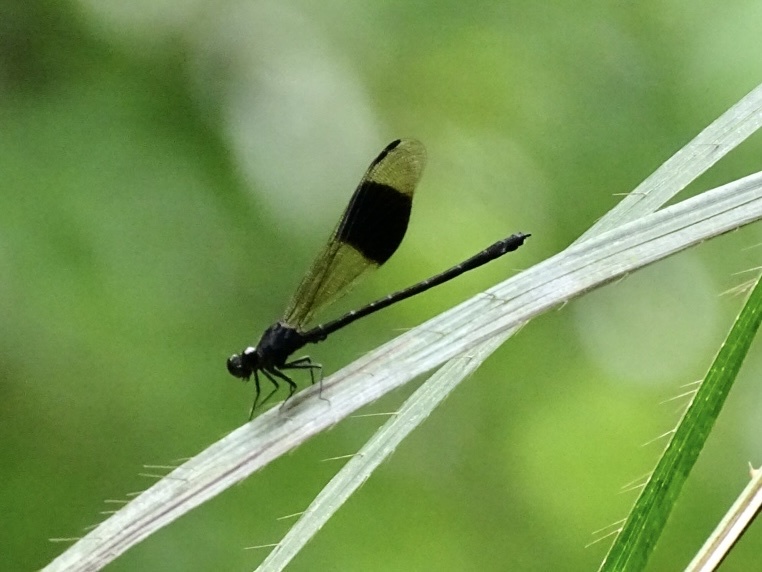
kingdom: Animalia
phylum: Arthropoda
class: Insecta
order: Odonata
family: Euphaeidae
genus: Euphaea
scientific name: Euphaea decorata
